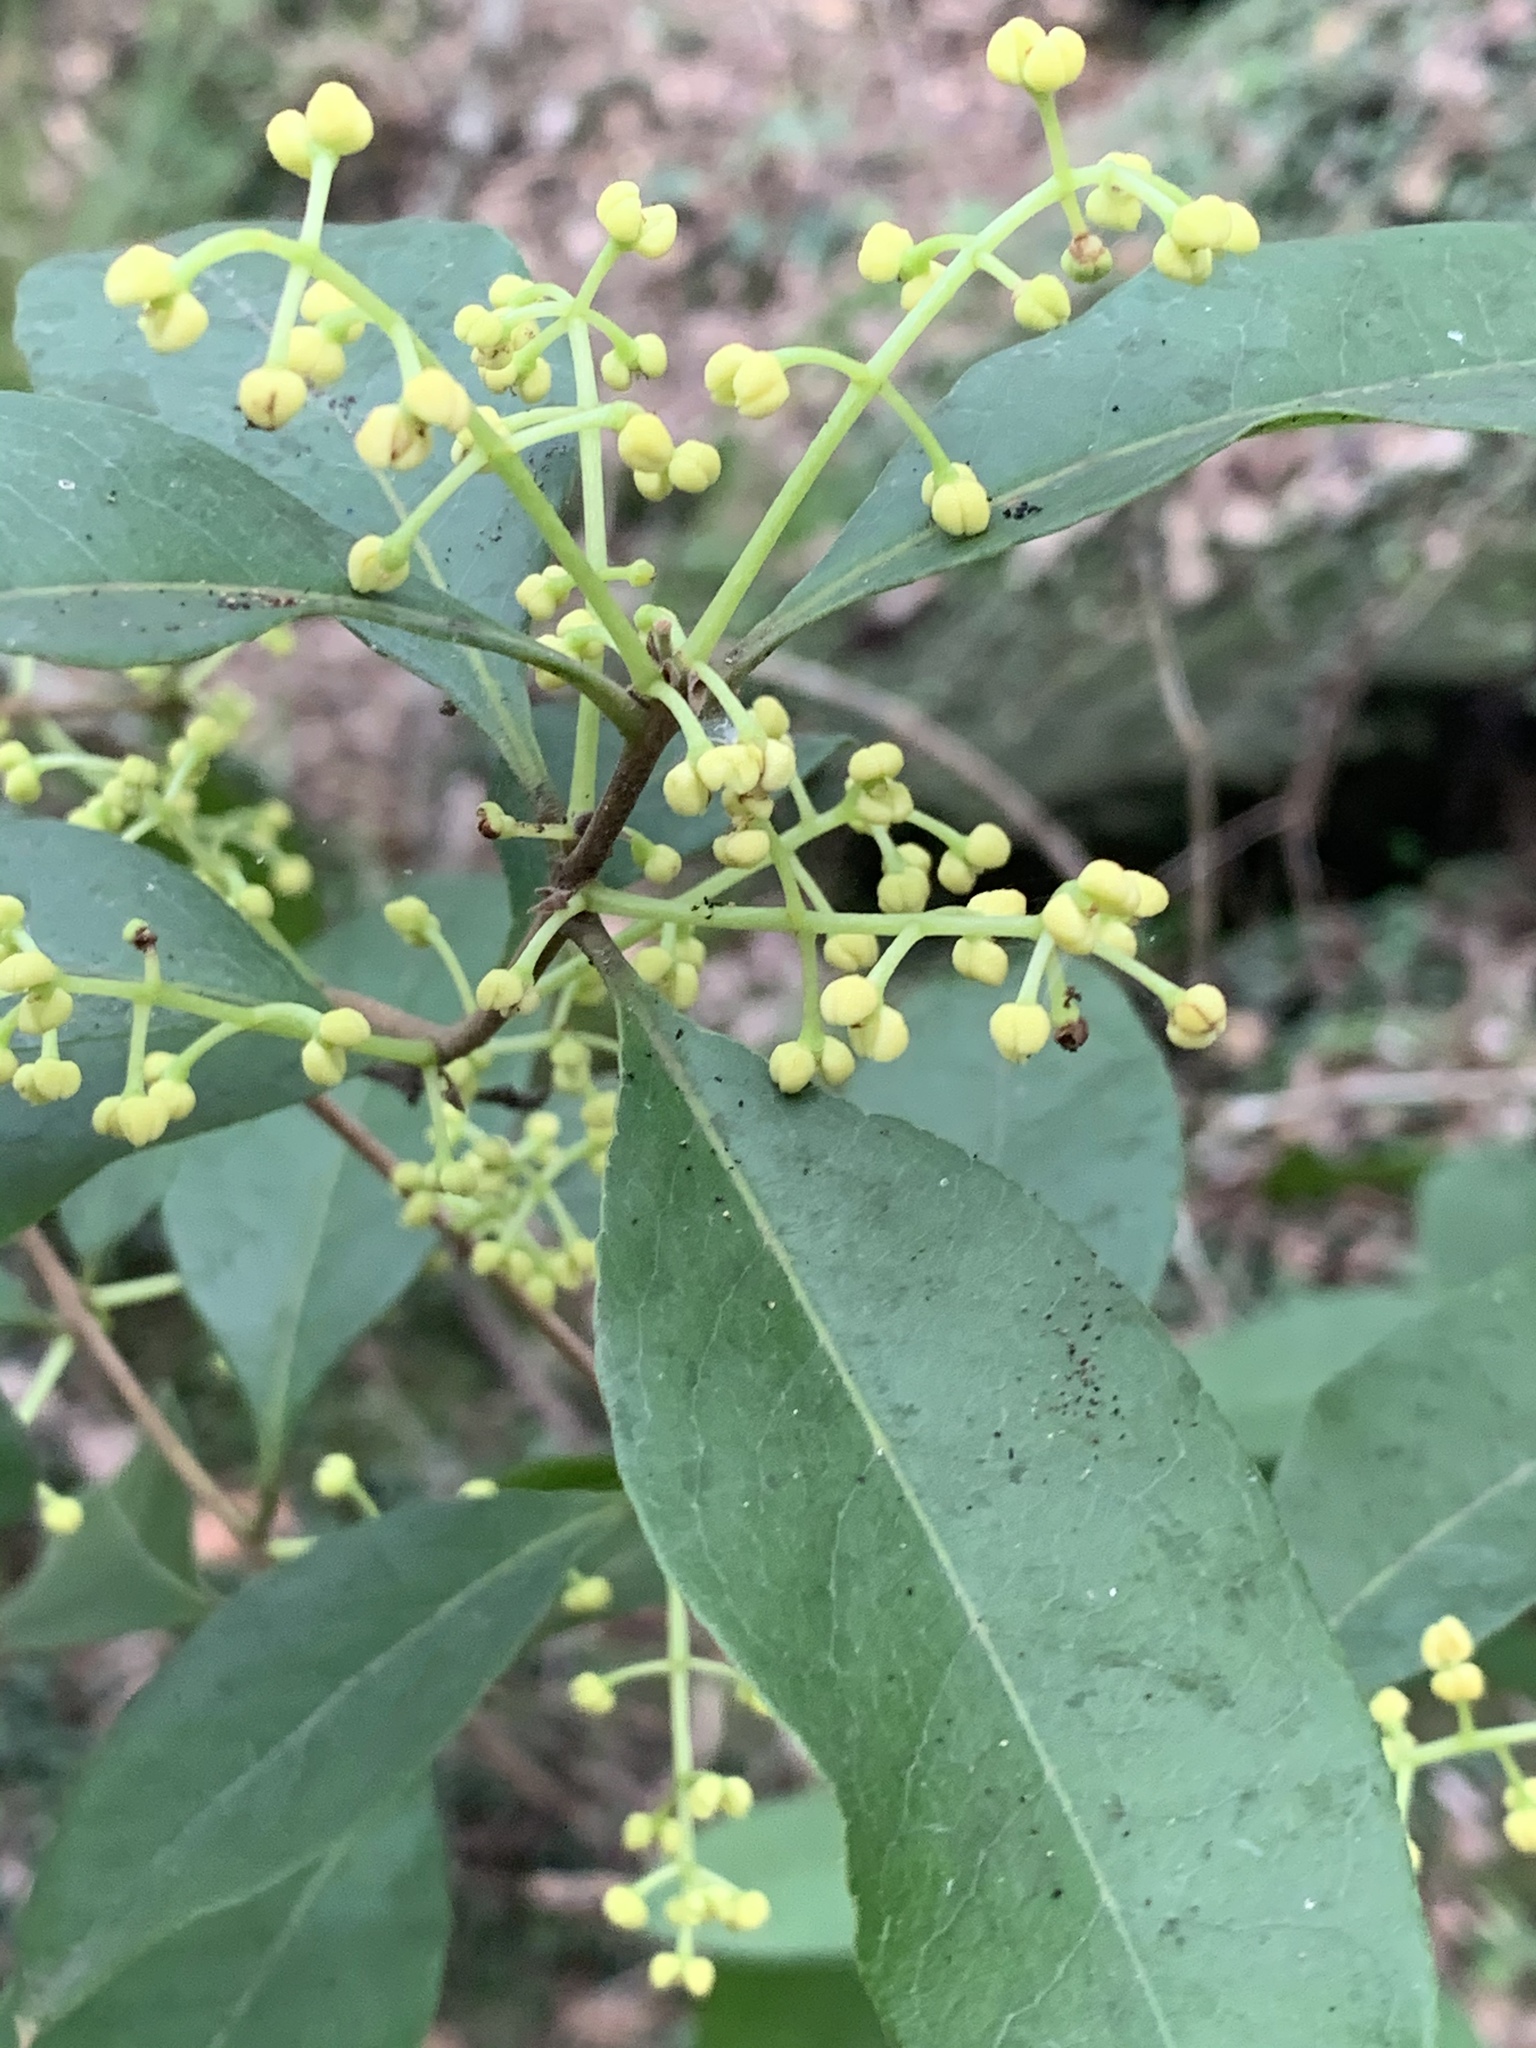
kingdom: Plantae
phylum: Tracheophyta
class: Magnoliopsida
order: Lamiales
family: Oleaceae
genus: Notelaea
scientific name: Notelaea venosa
